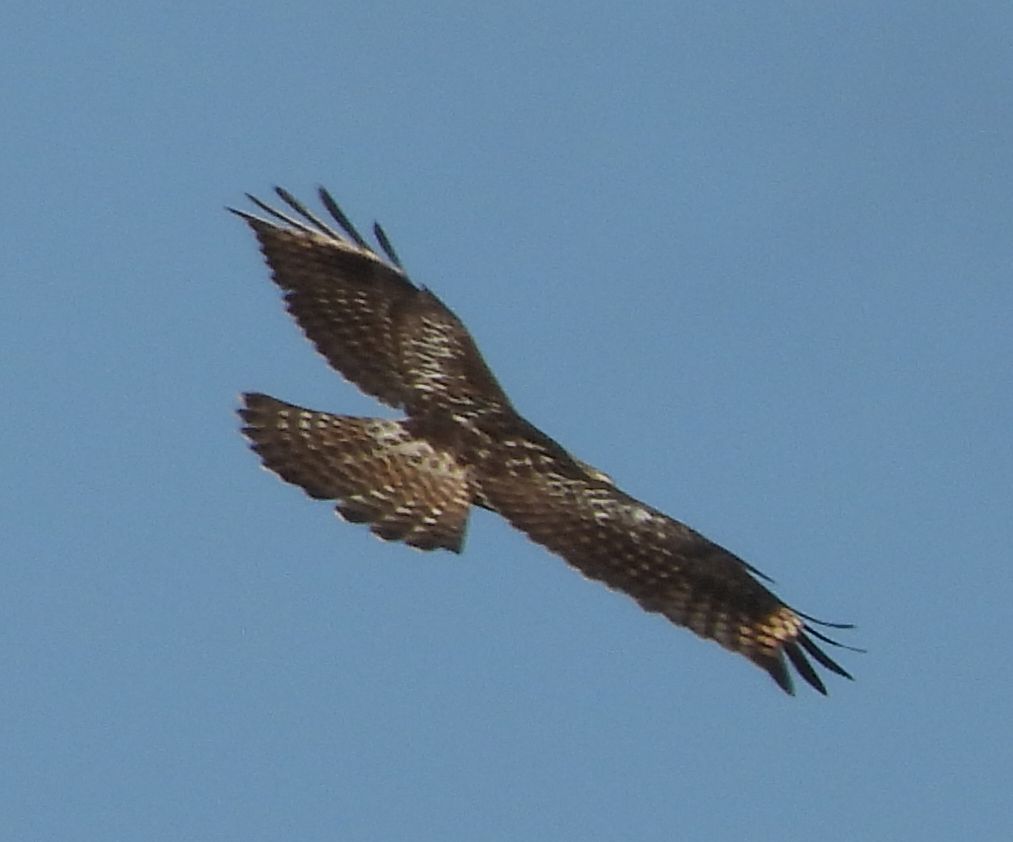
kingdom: Animalia
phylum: Chordata
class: Aves
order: Accipitriformes
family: Accipitridae
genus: Buteo
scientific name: Buteo jamaicensis
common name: Red-tailed hawk
